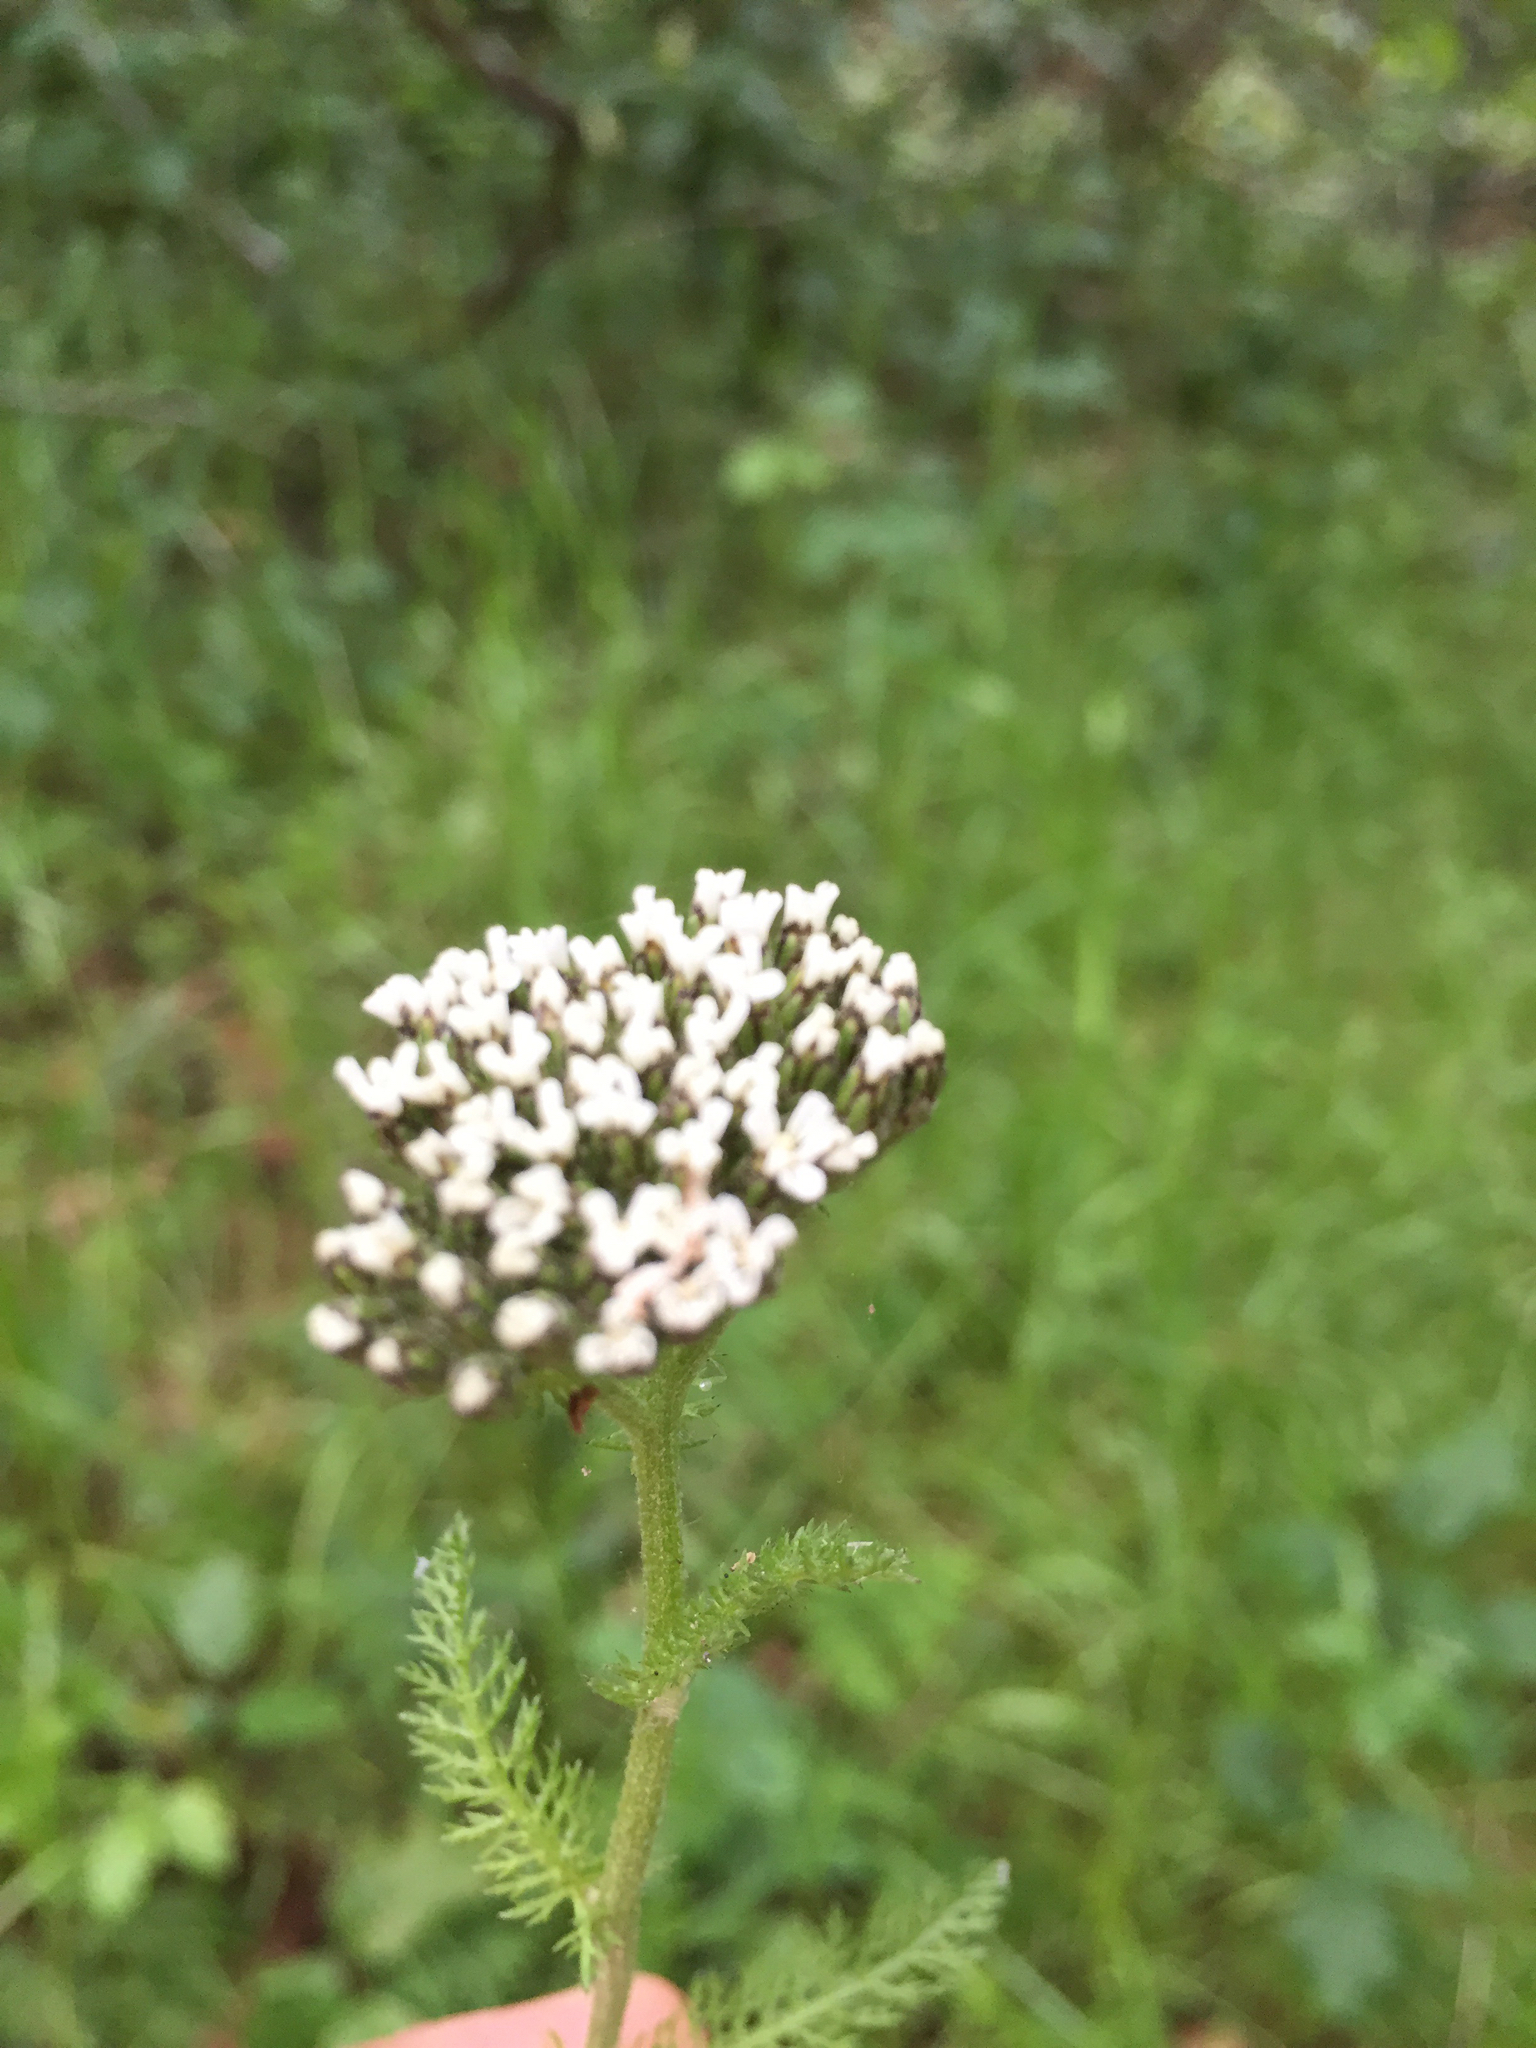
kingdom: Plantae
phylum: Tracheophyta
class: Magnoliopsida
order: Asterales
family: Asteraceae
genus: Achillea
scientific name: Achillea millefolium
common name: Yarrow
